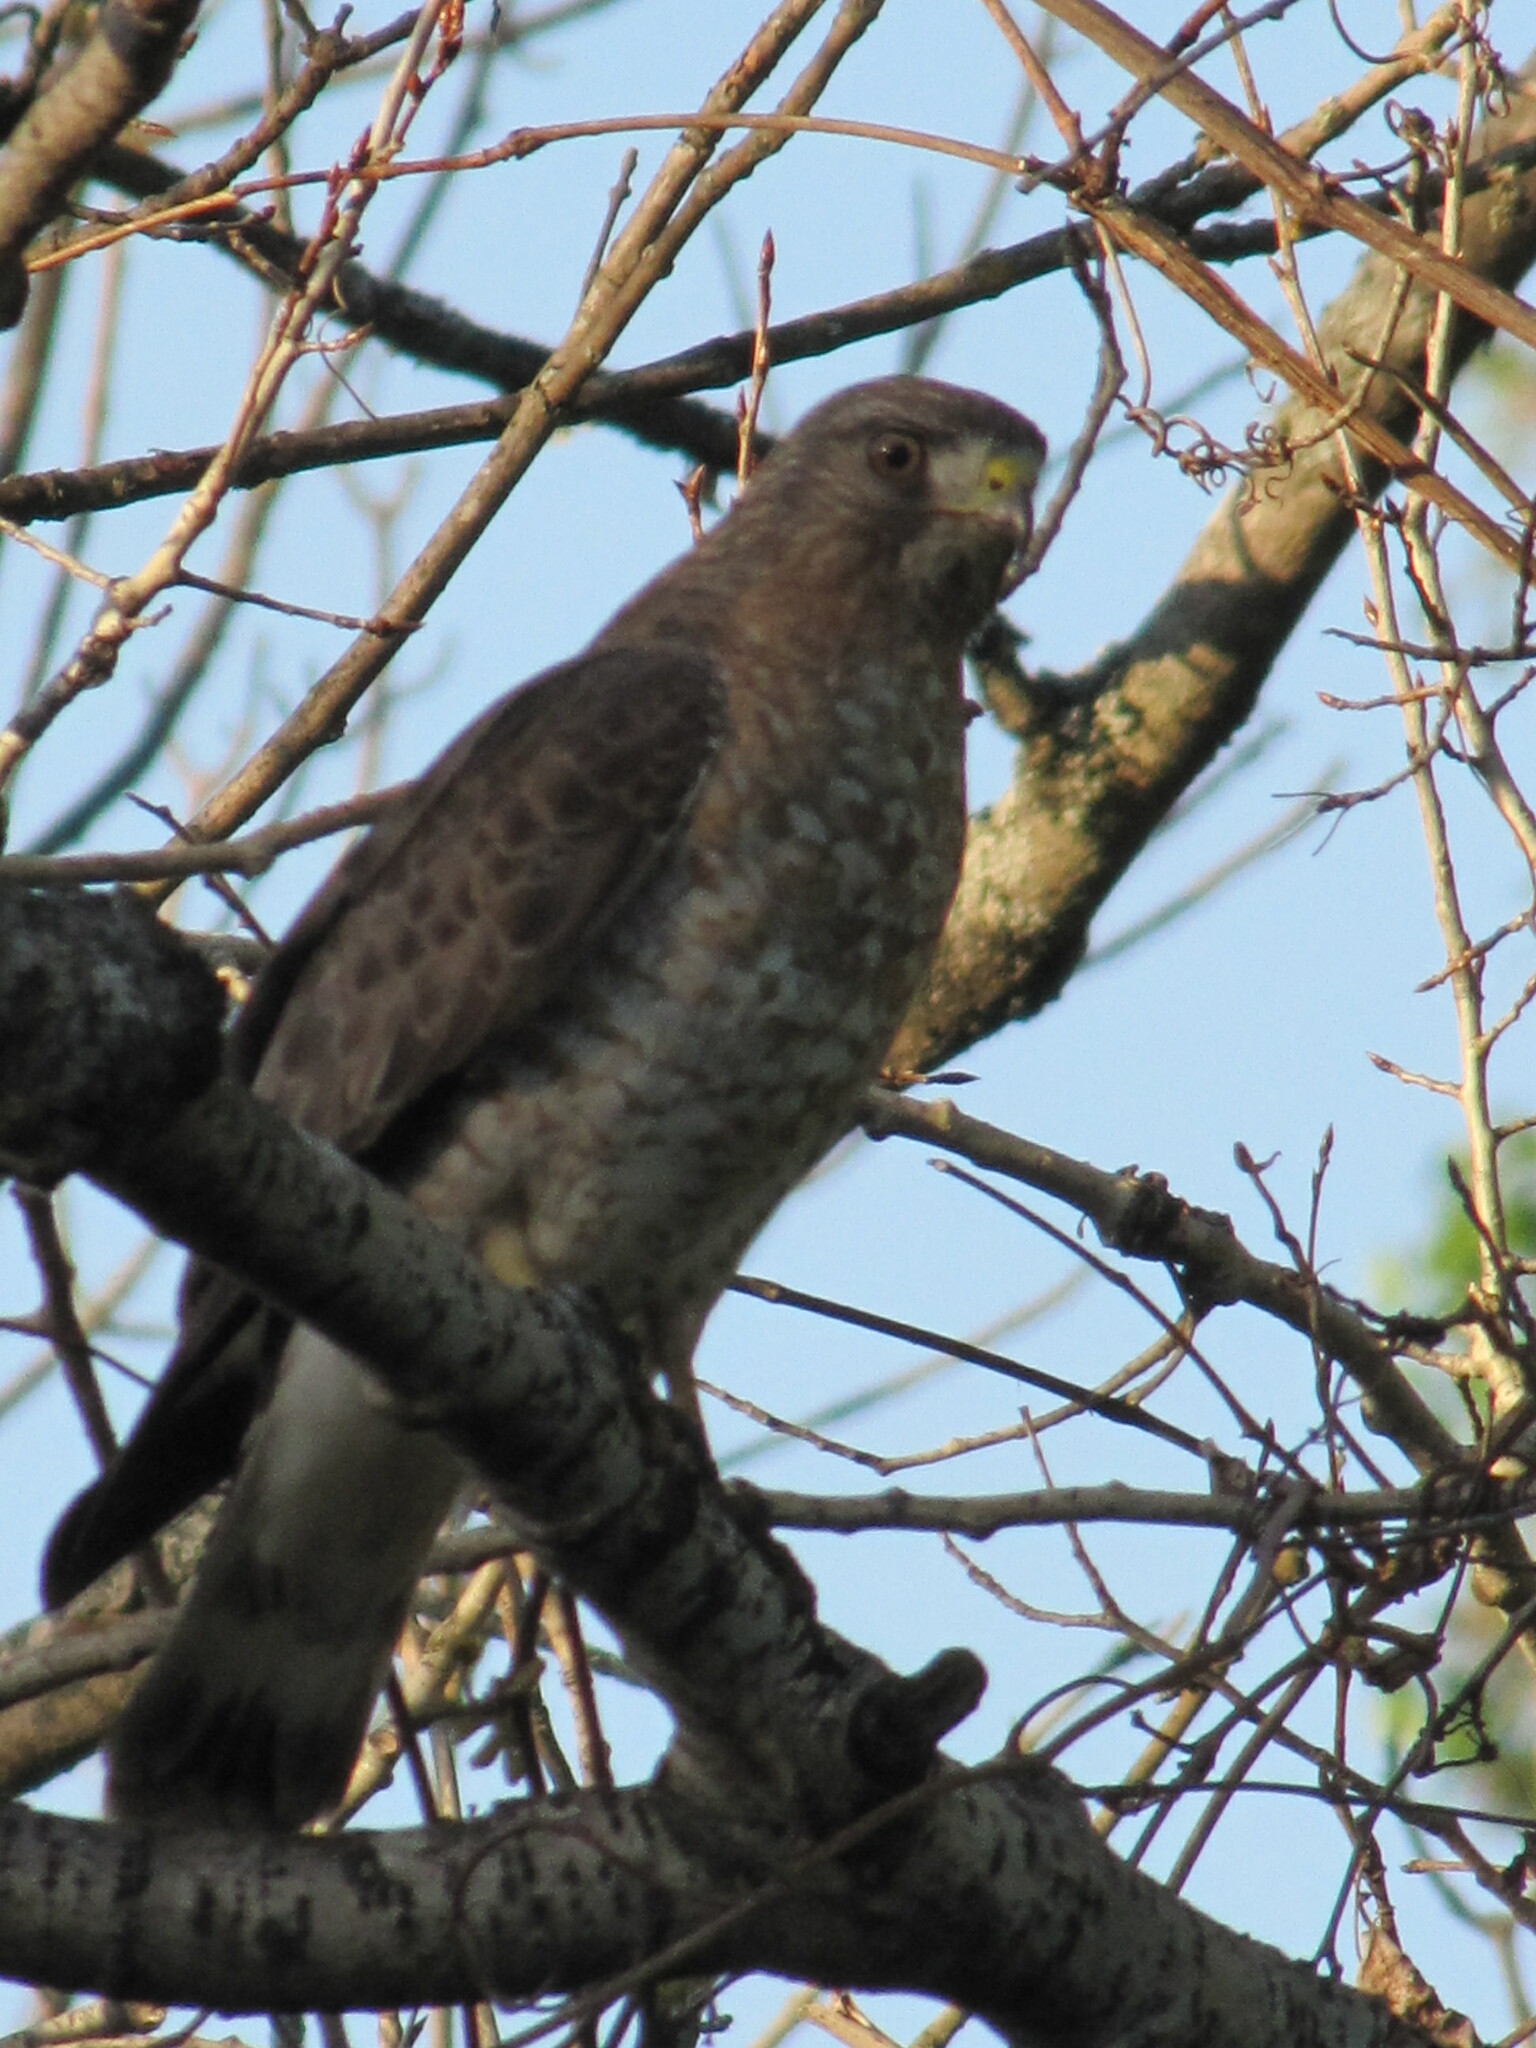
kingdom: Animalia
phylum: Chordata
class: Aves
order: Accipitriformes
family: Accipitridae
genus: Buteo
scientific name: Buteo platypterus
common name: Broad-winged hawk
